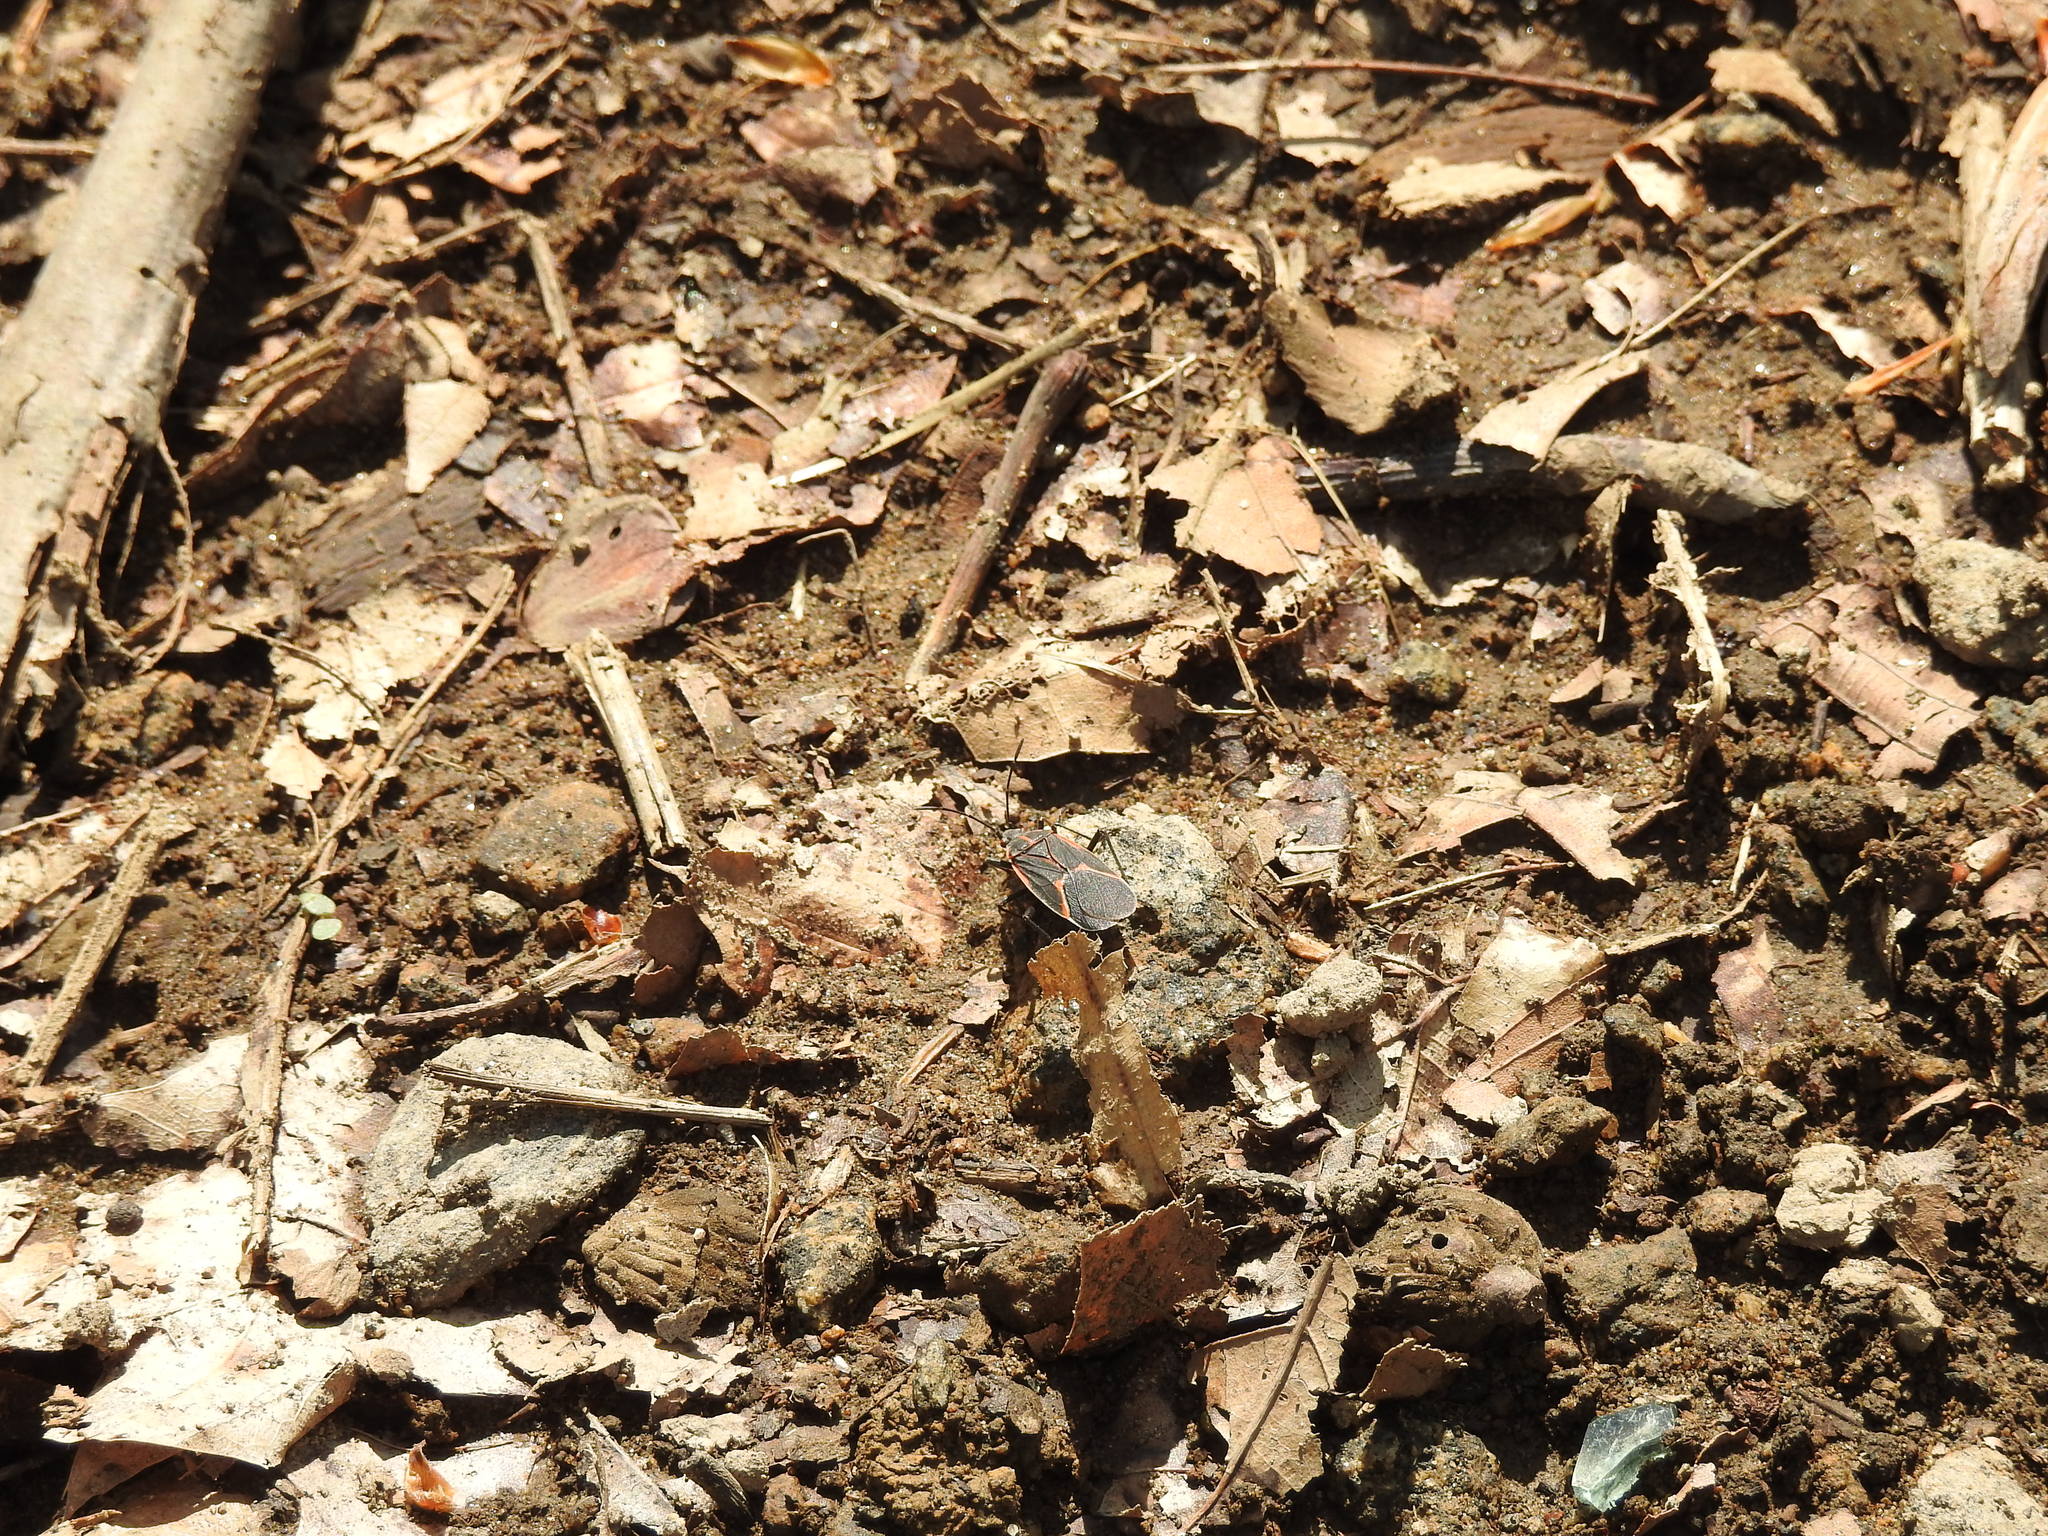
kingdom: Animalia
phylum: Arthropoda
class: Insecta
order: Hemiptera
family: Rhopalidae
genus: Boisea
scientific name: Boisea trivittata
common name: Boxelder bug
